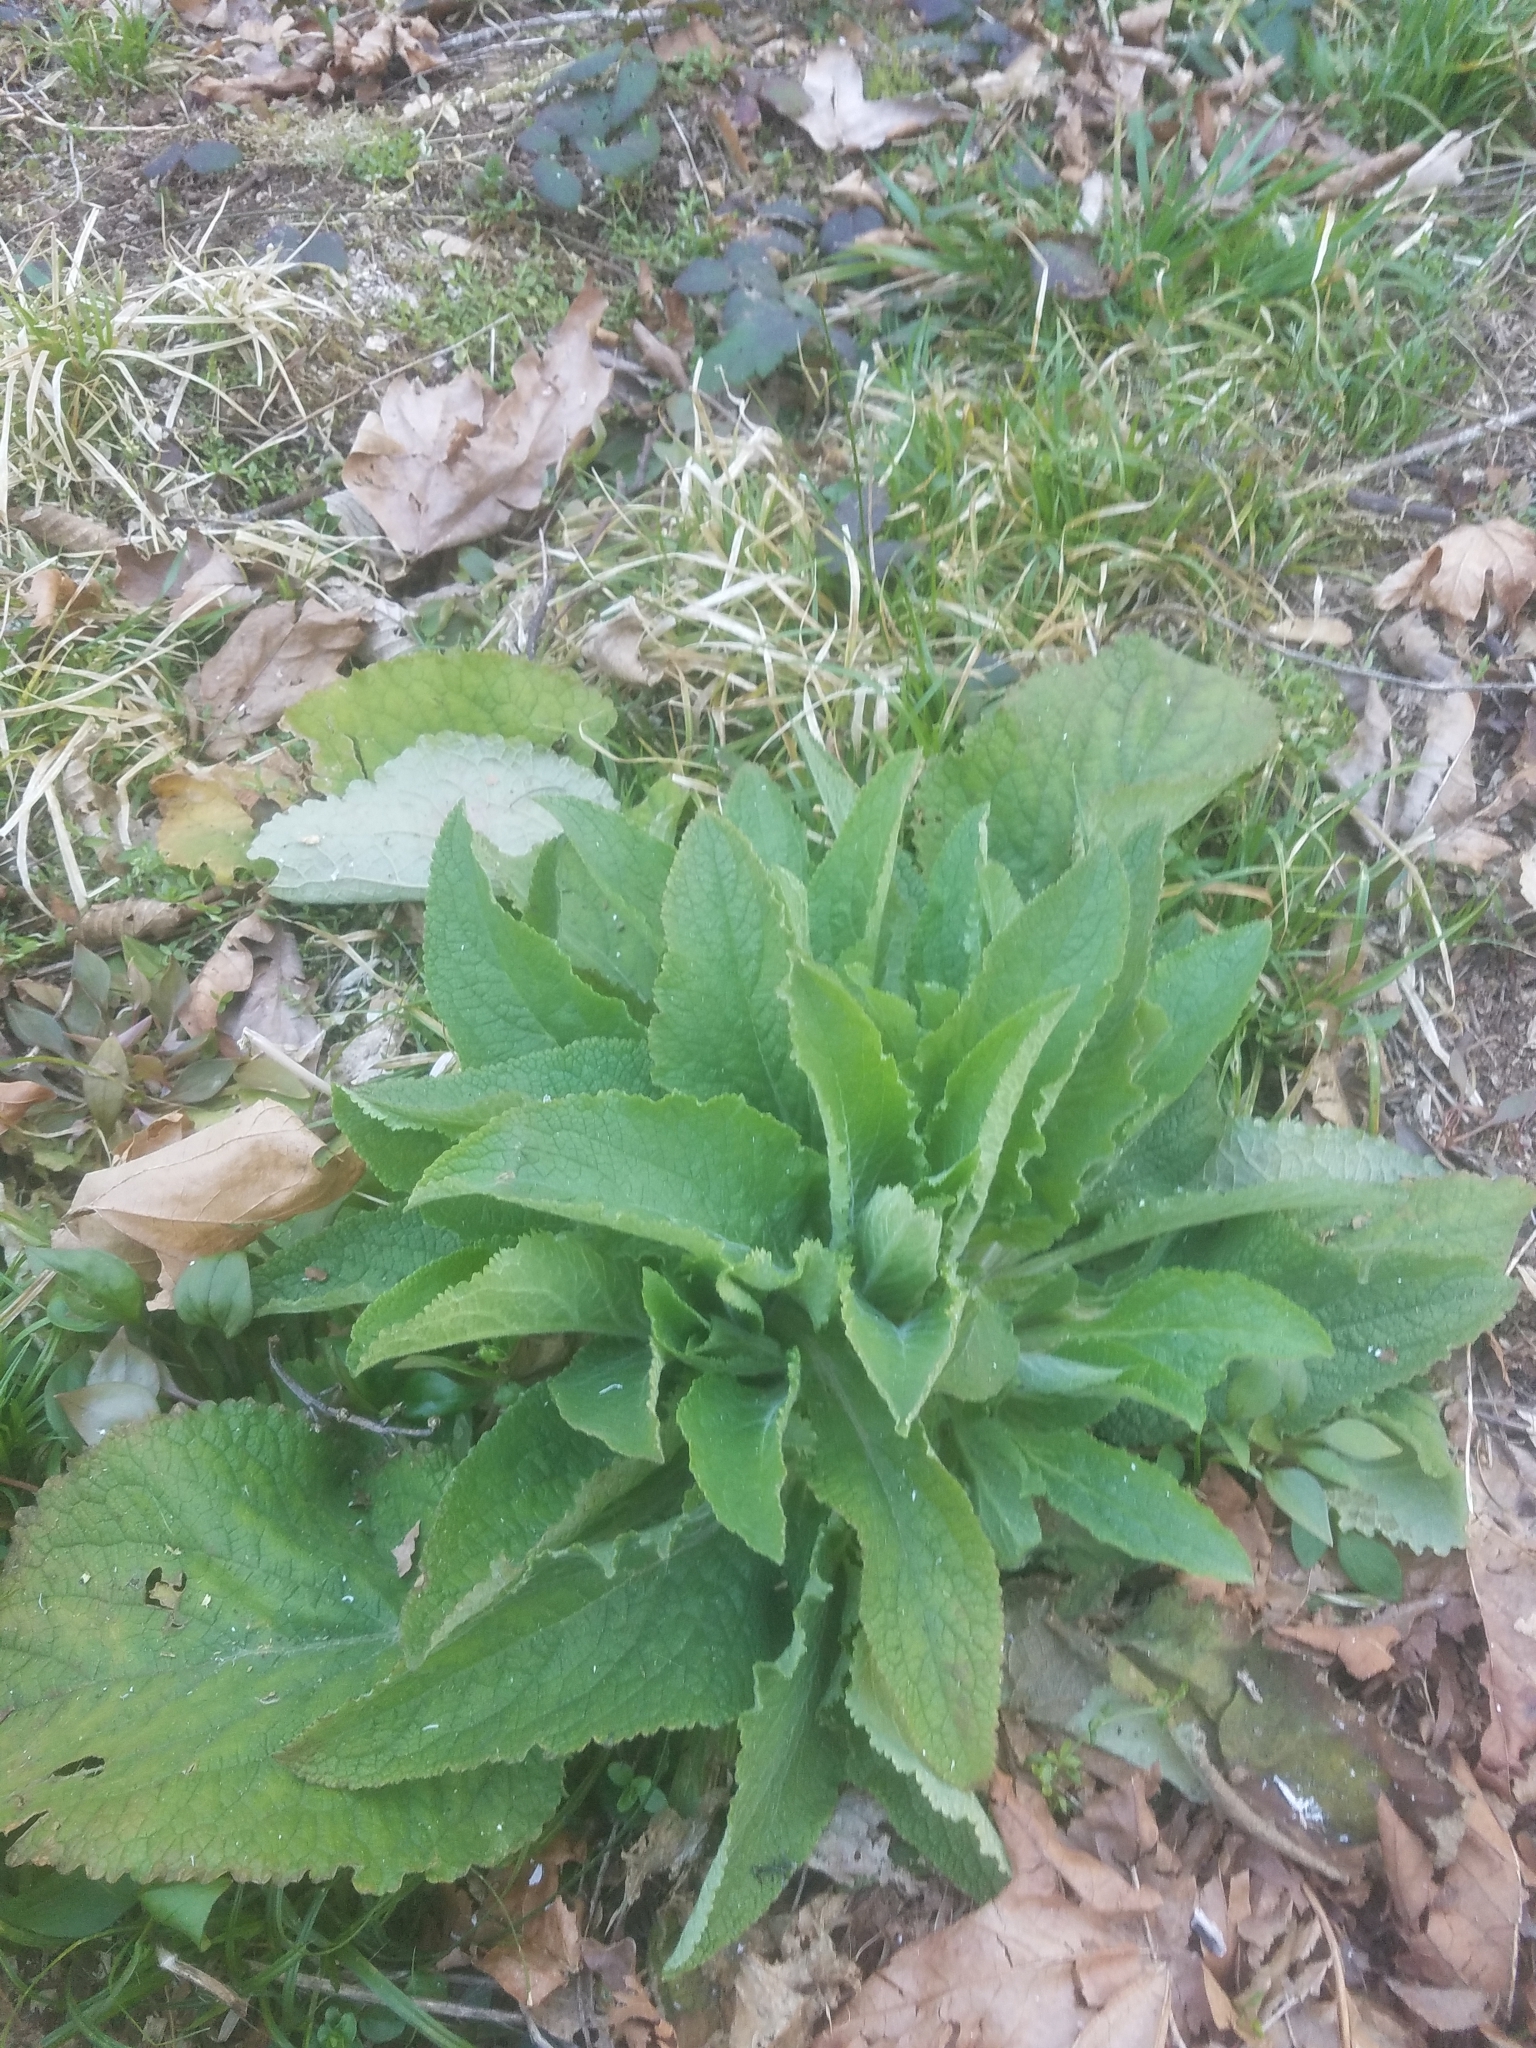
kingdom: Plantae
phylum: Tracheophyta
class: Magnoliopsida
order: Lamiales
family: Plantaginaceae
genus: Digitalis
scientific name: Digitalis purpurea
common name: Foxglove
